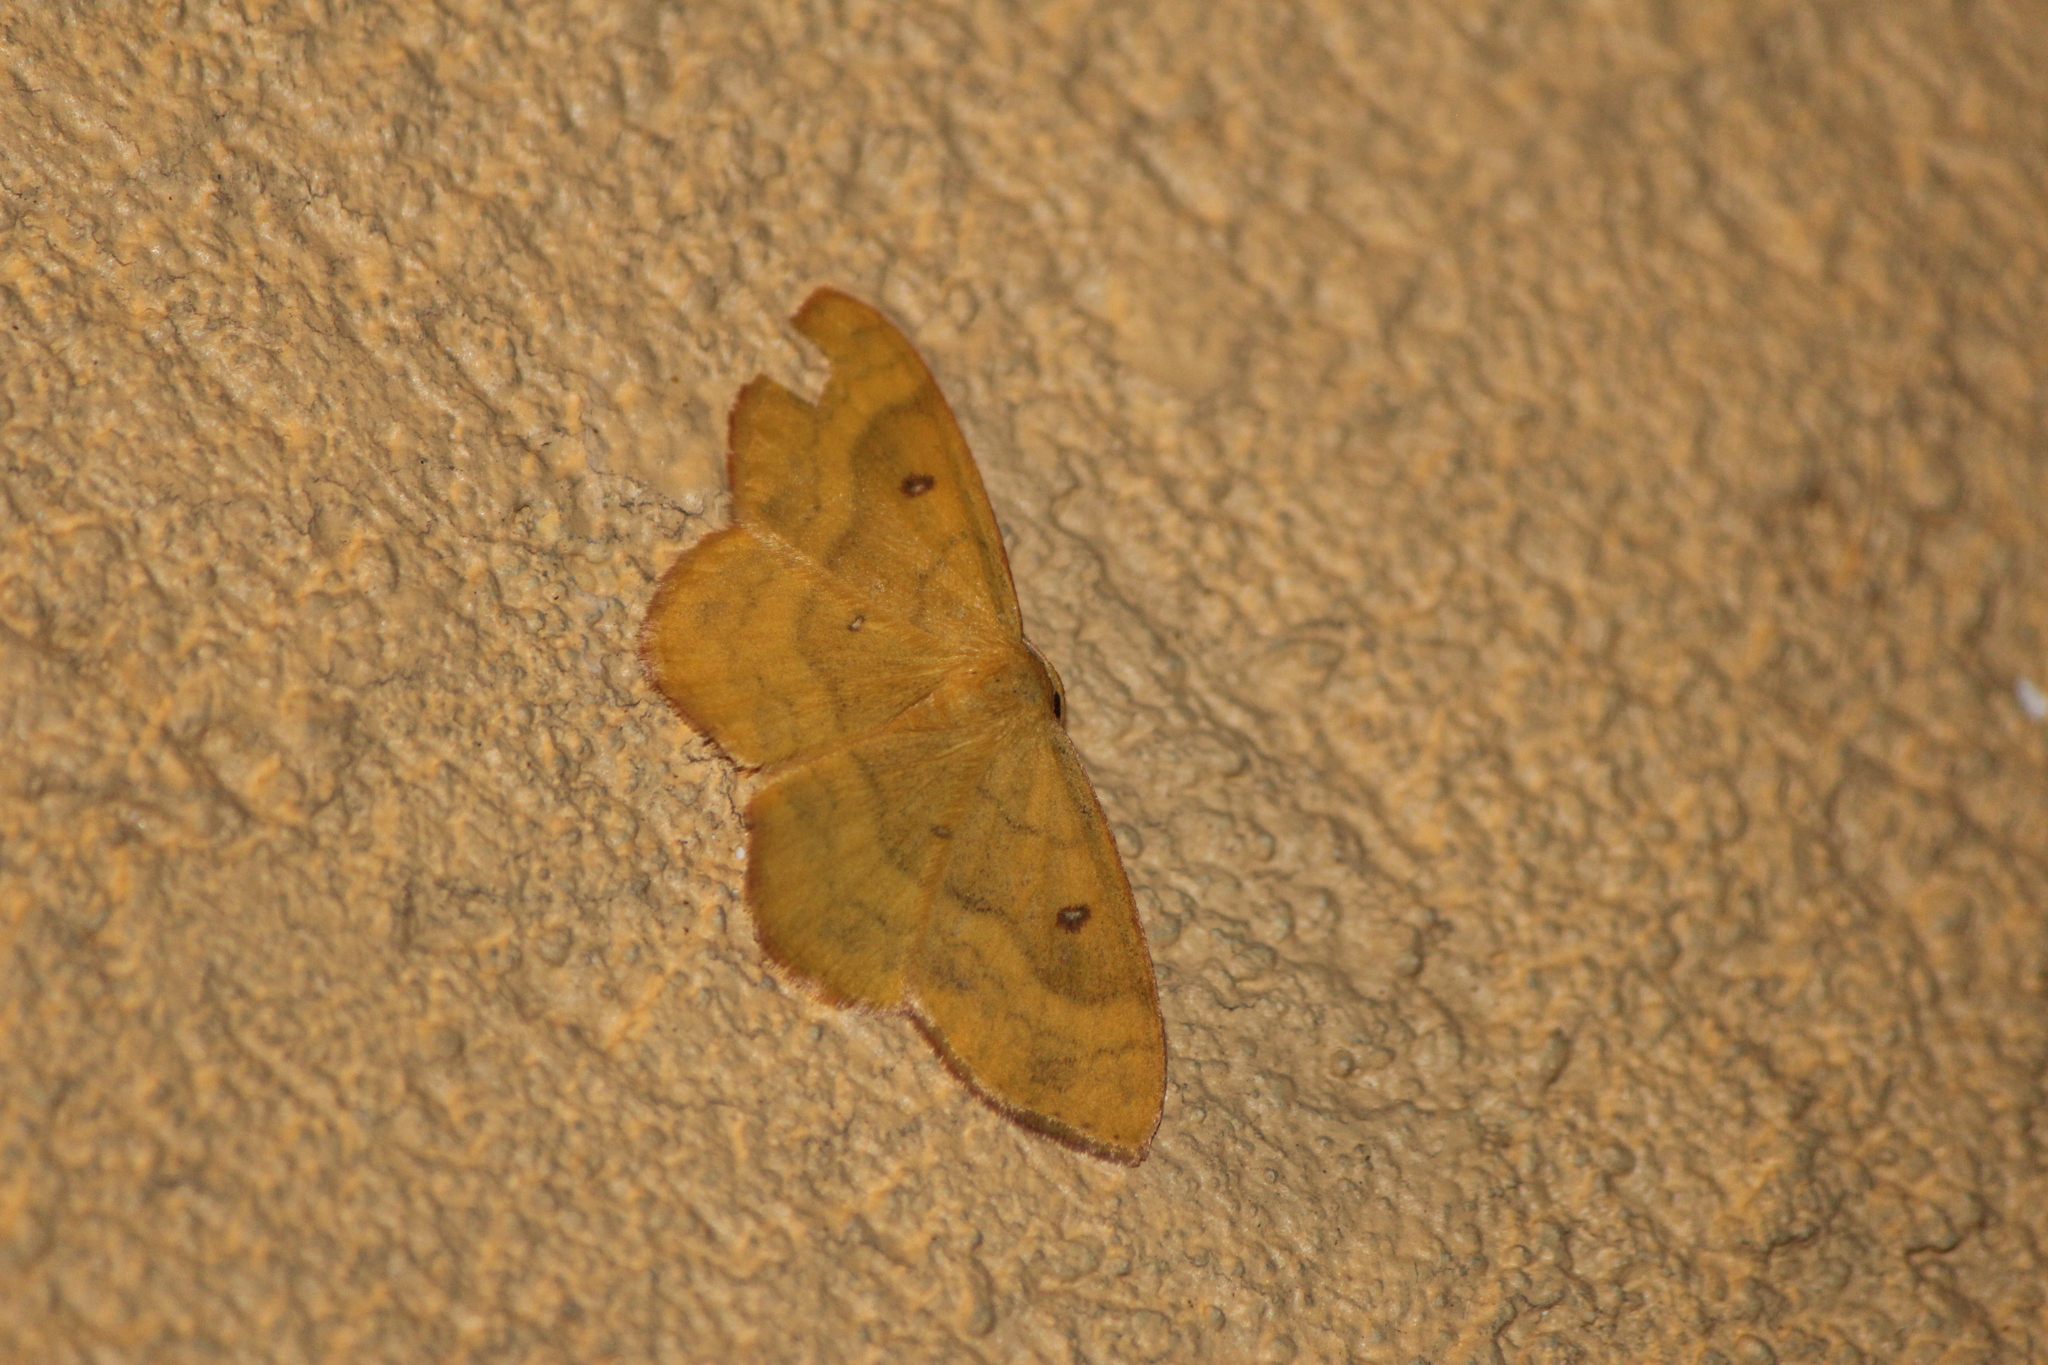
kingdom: Animalia
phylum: Arthropoda
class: Insecta
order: Lepidoptera
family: Geometridae
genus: Semaeopus
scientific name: Semaeopus ella
